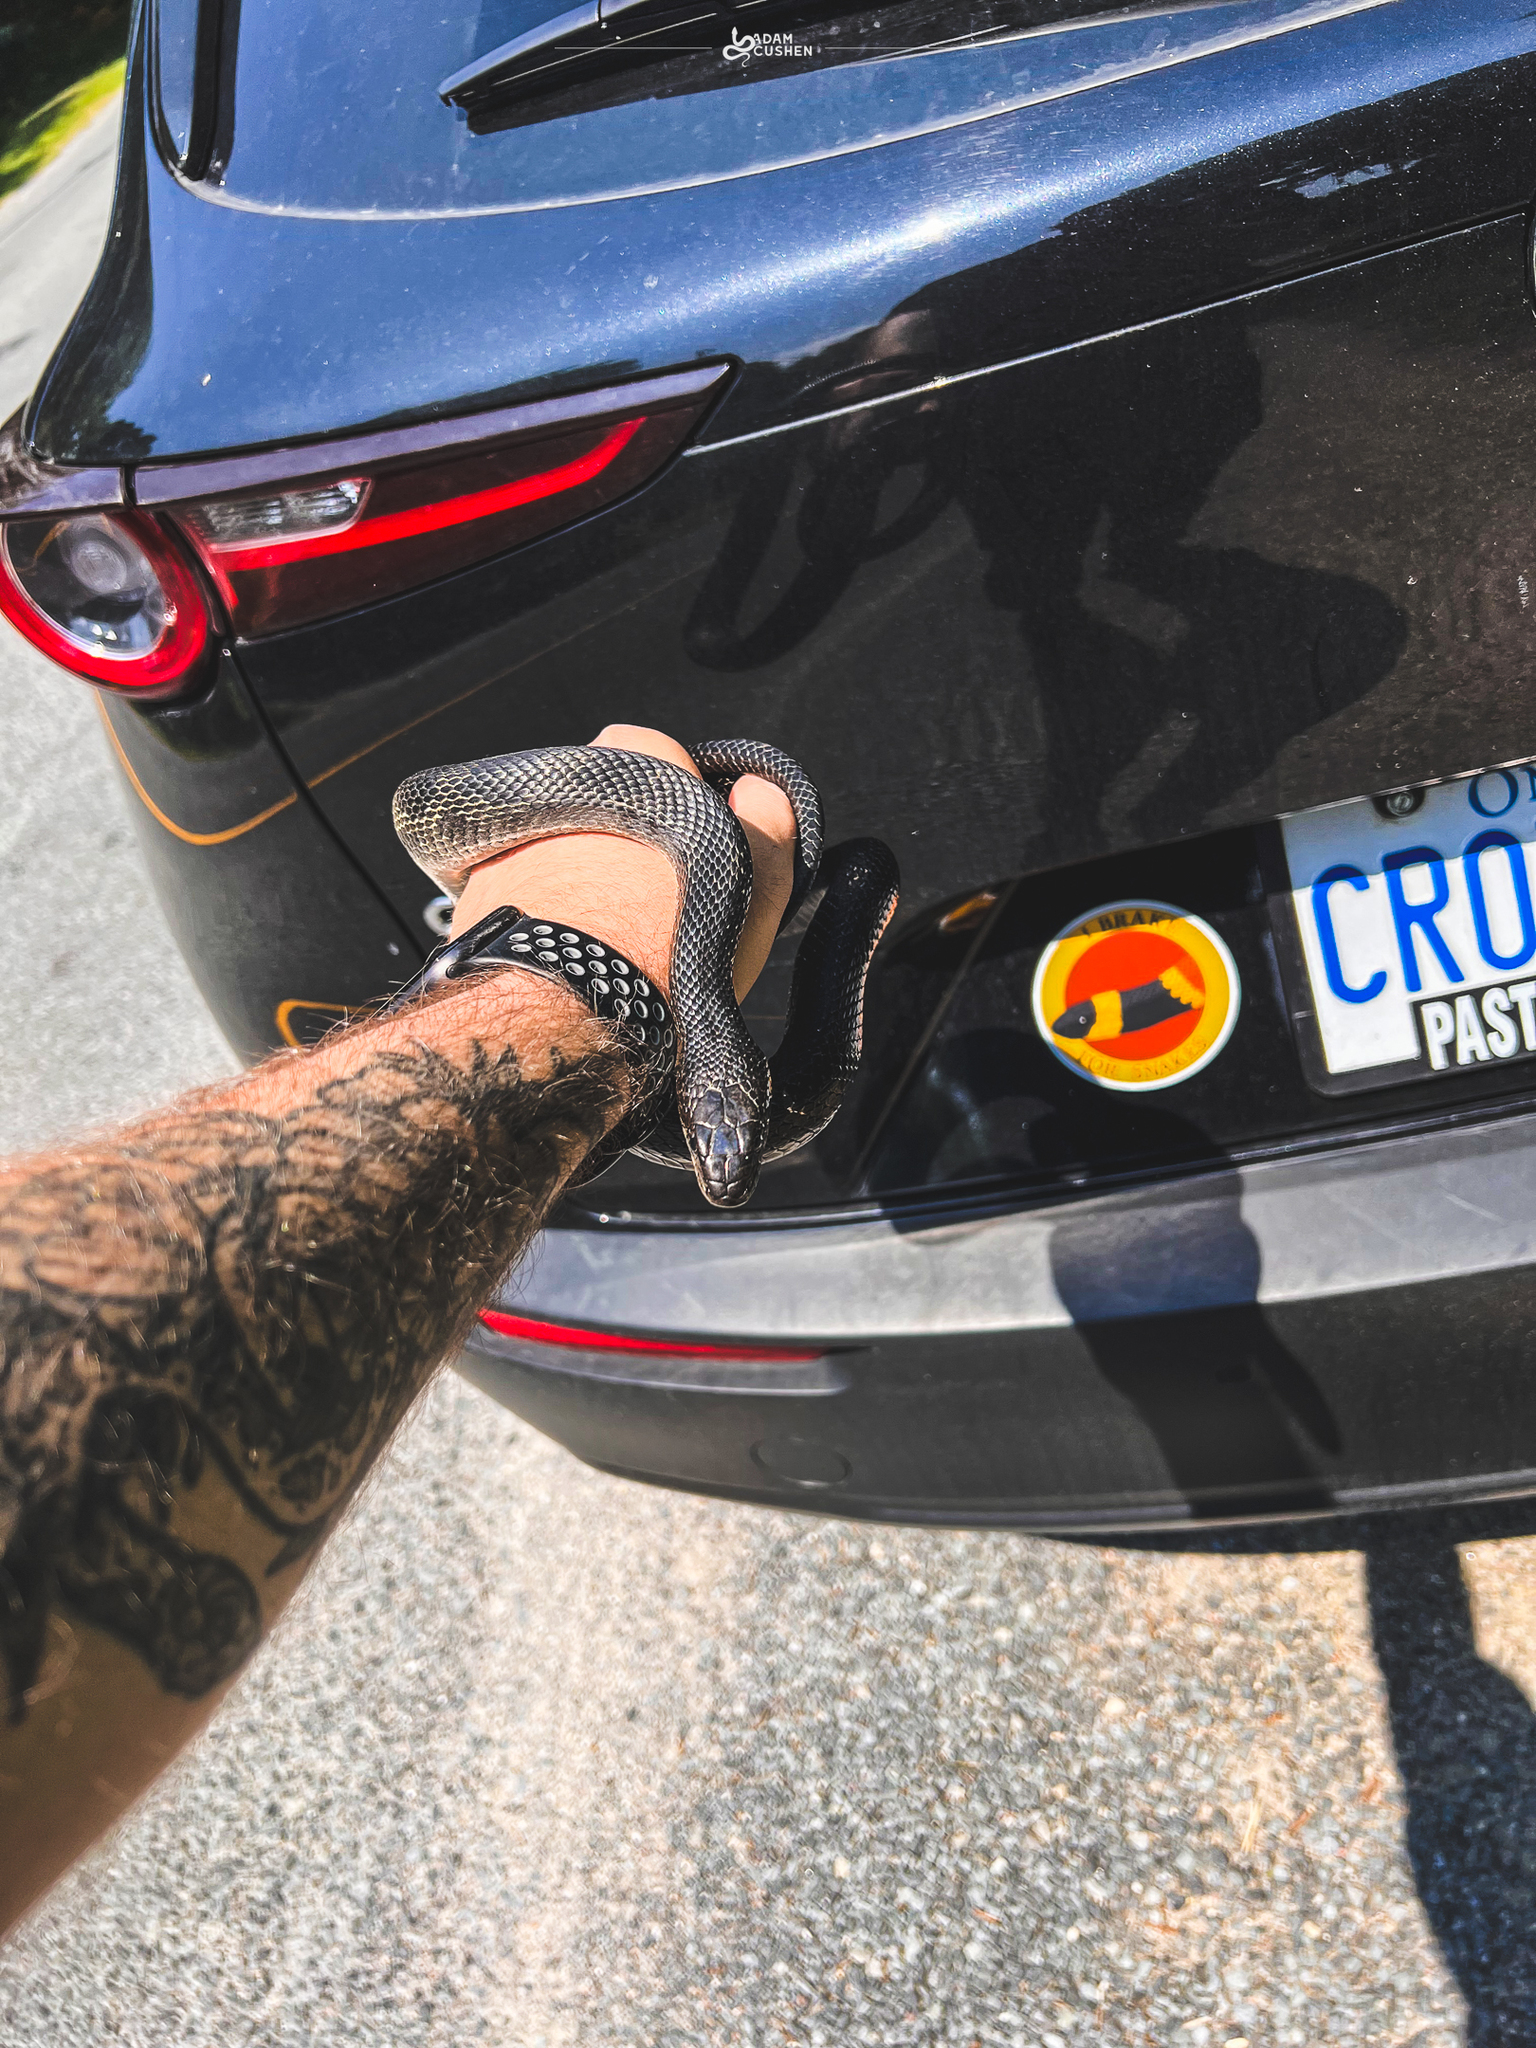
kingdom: Animalia
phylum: Chordata
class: Squamata
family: Colubridae
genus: Pantherophis
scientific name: Pantherophis spiloides
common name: Gray rat snake
